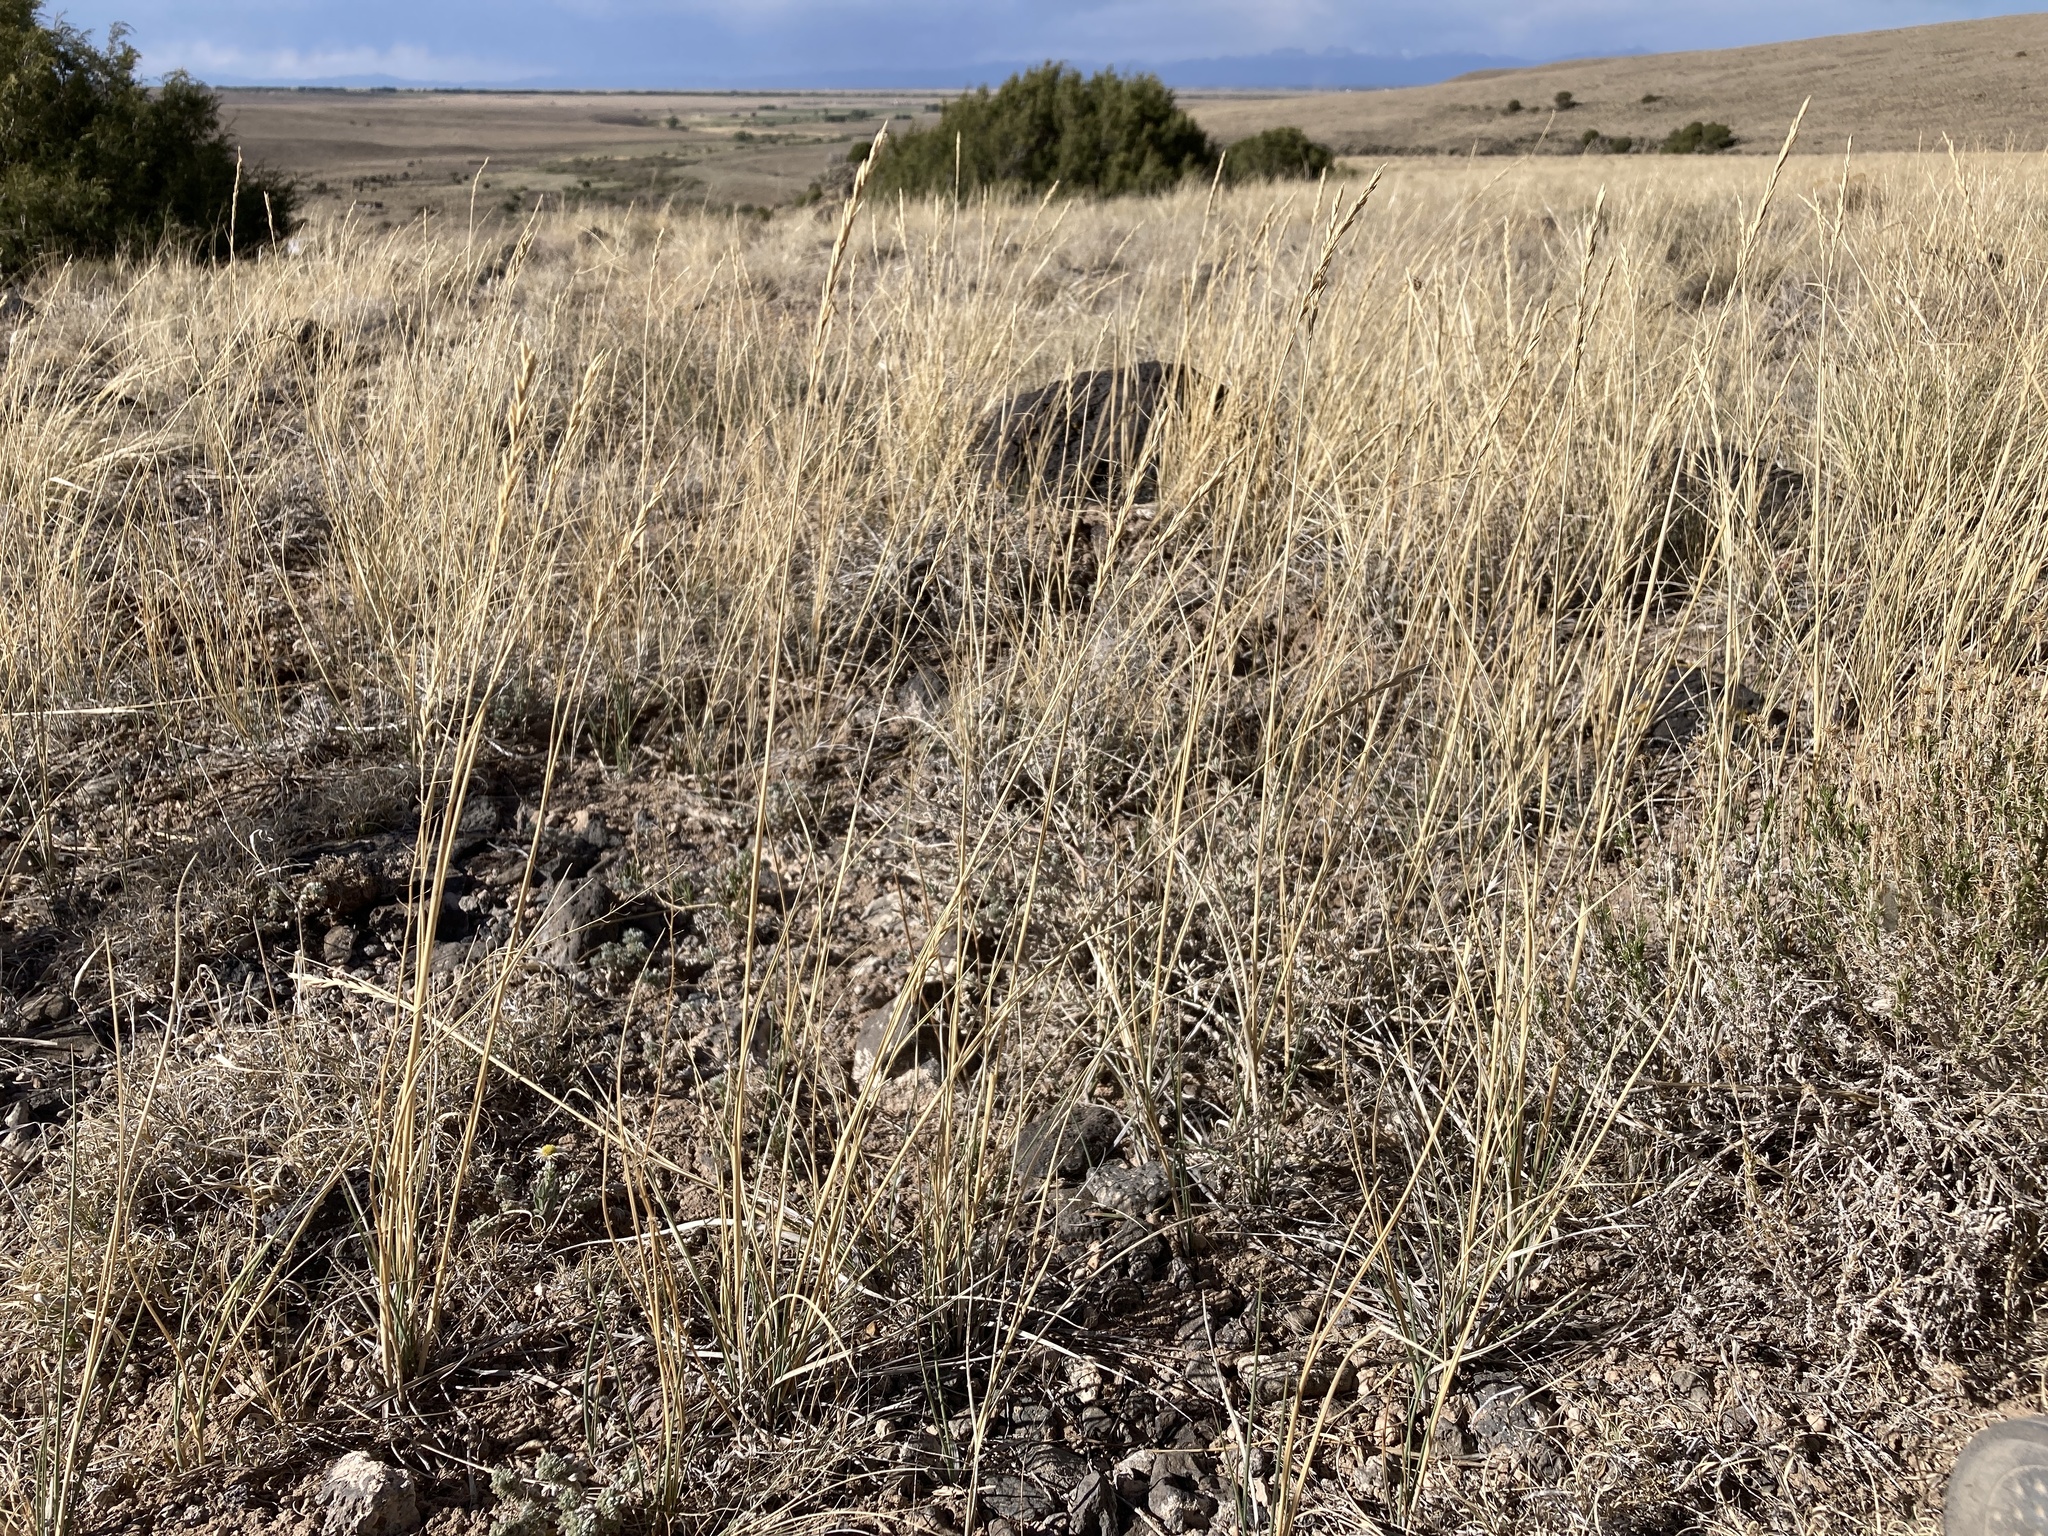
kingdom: Plantae
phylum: Tracheophyta
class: Liliopsida
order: Poales
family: Poaceae
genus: Elymus
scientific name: Elymus smithii
